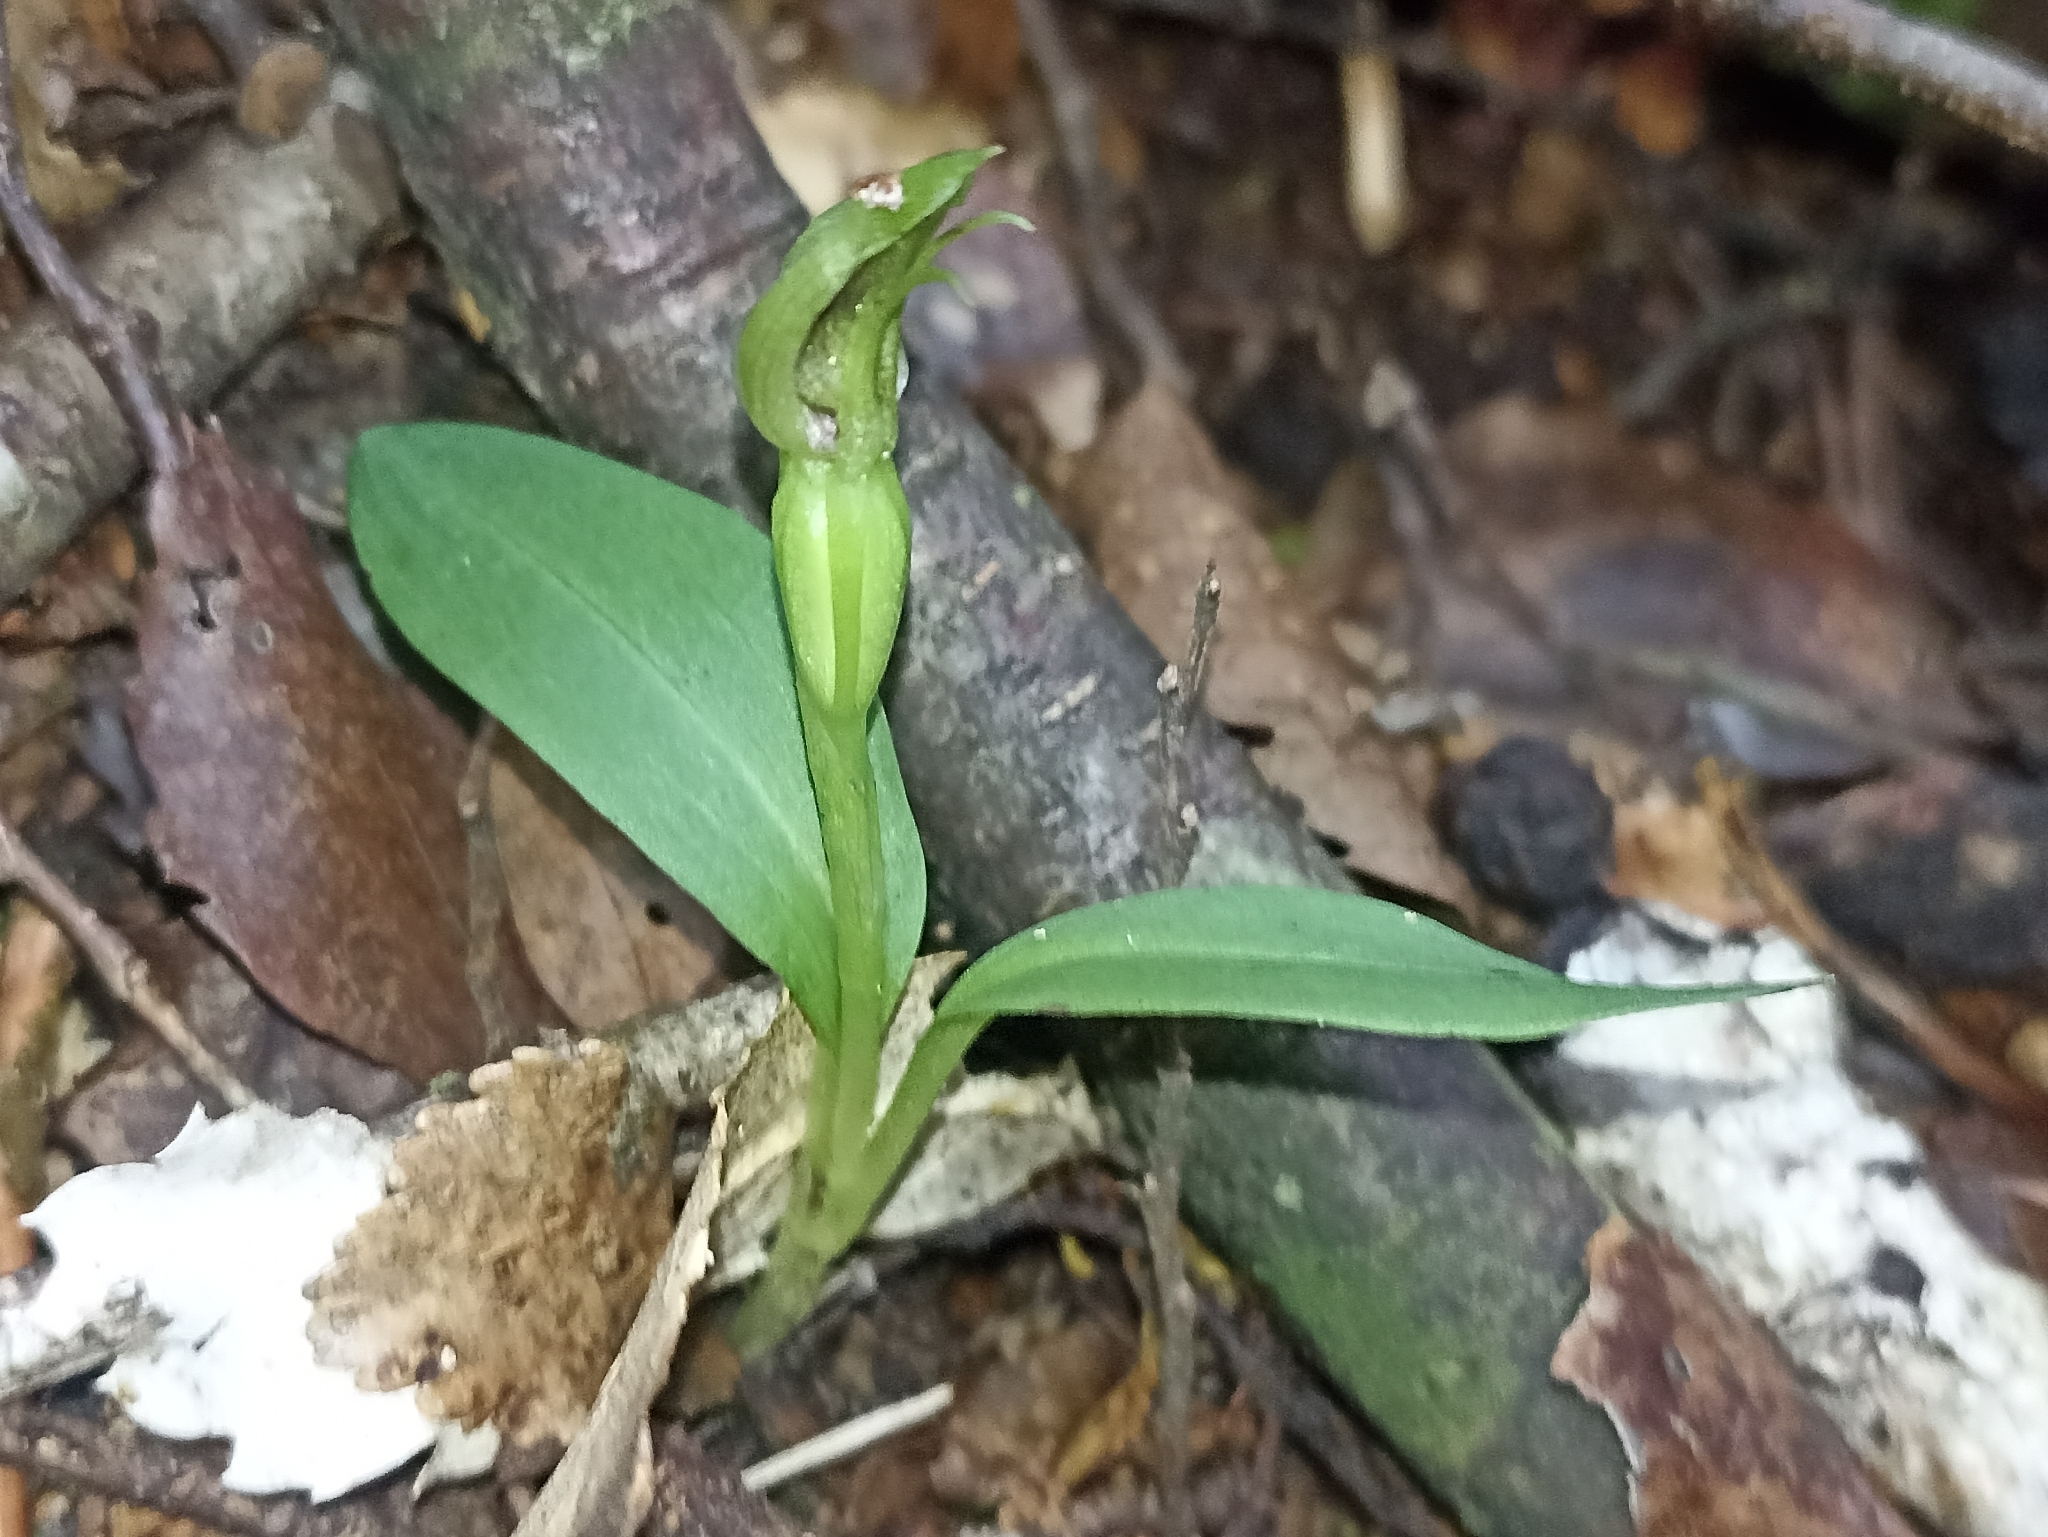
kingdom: Plantae
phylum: Tracheophyta
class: Liliopsida
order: Asparagales
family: Orchidaceae
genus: Chiloglottis
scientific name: Chiloglottis cornuta
